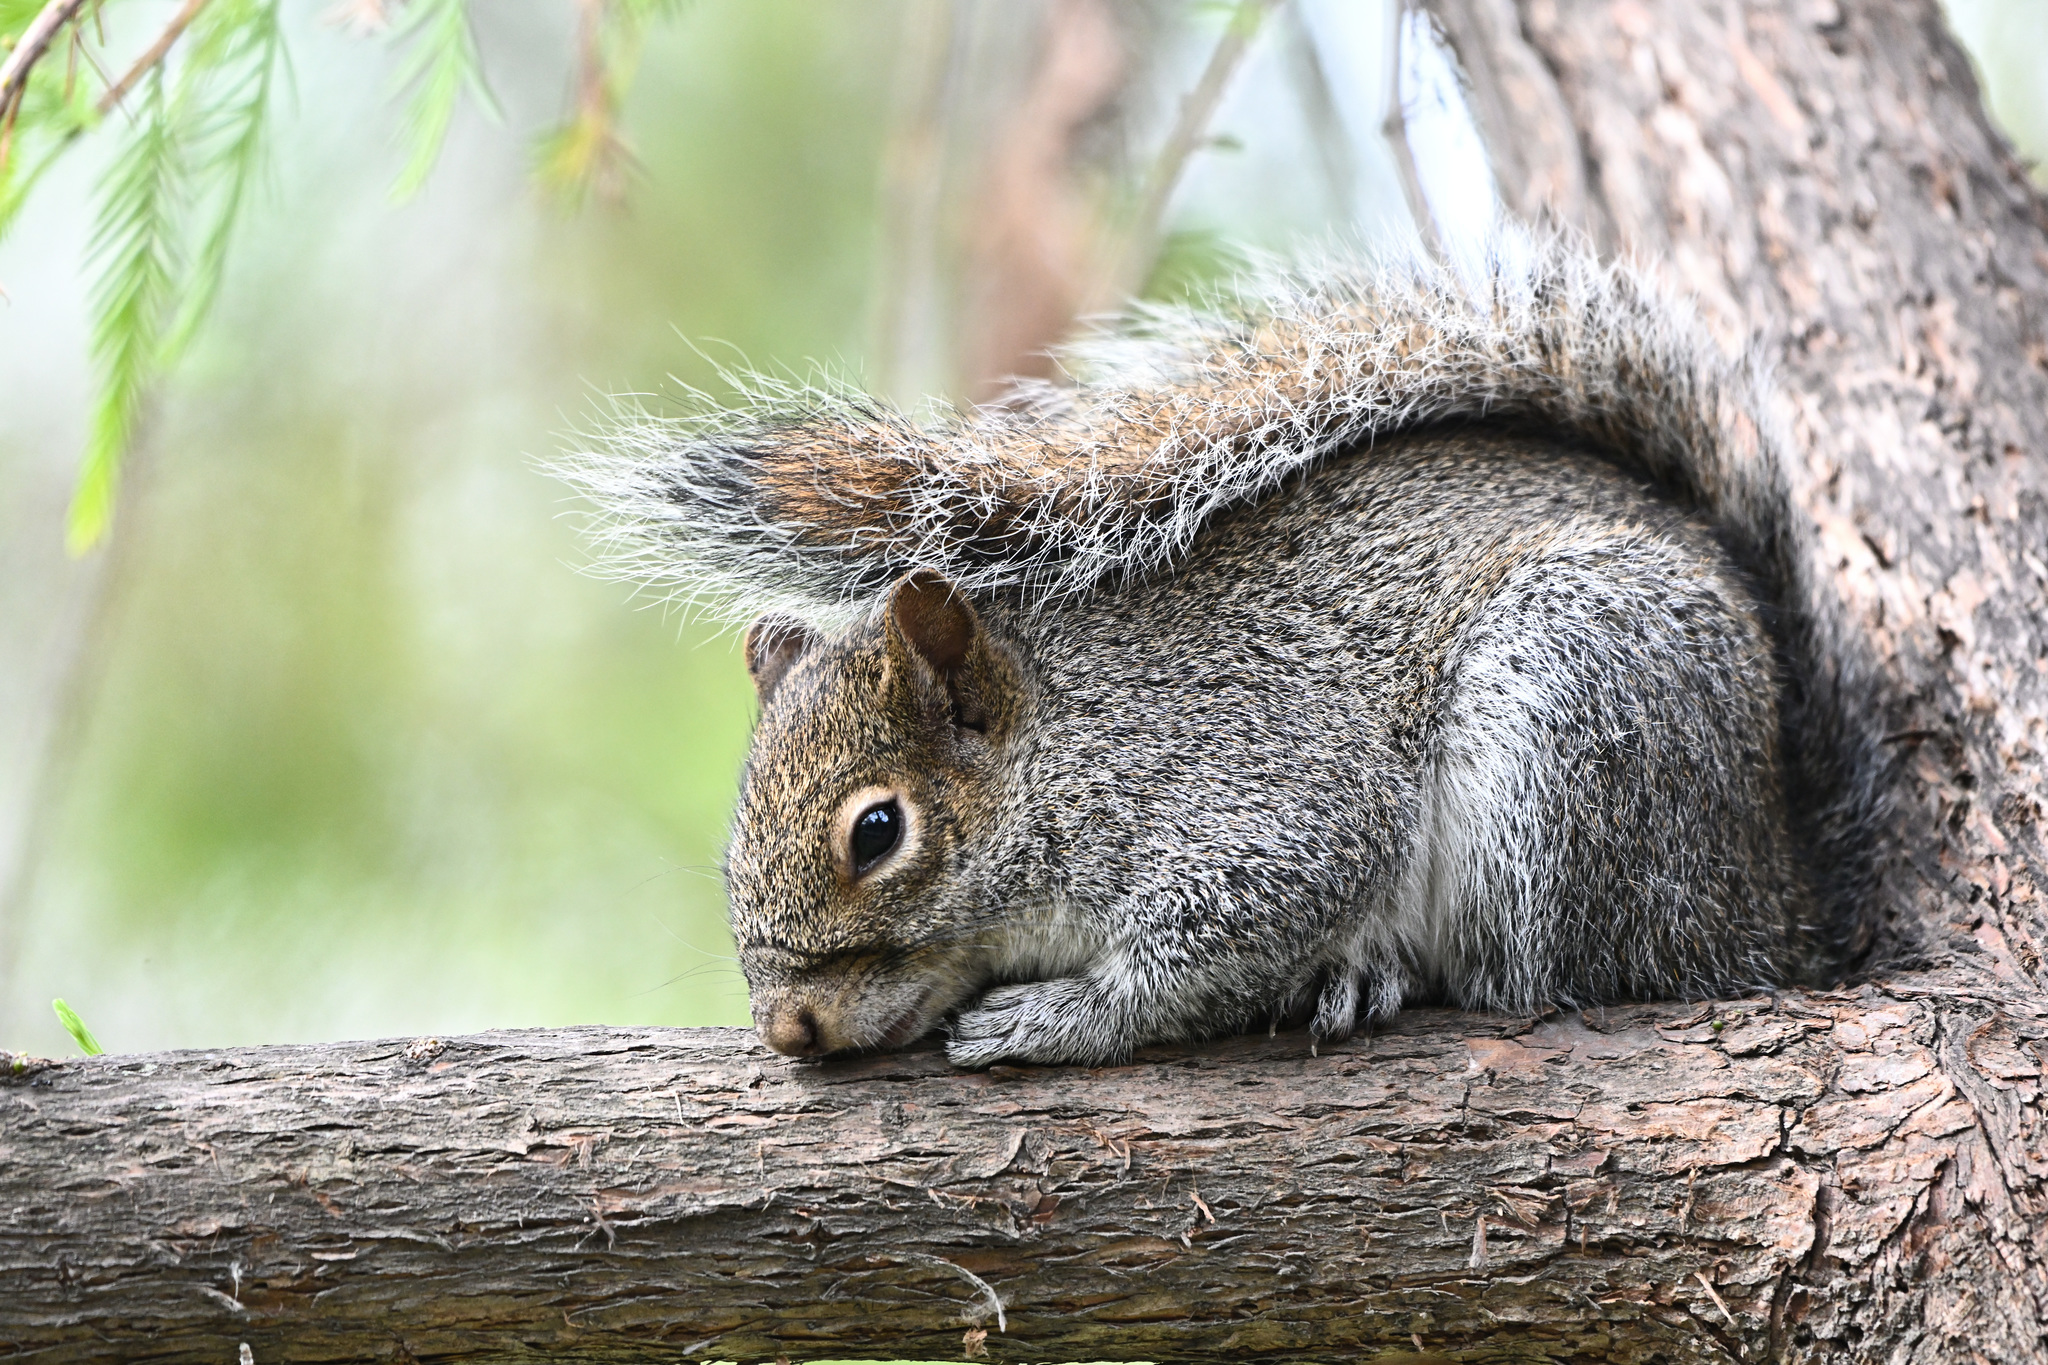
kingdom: Animalia
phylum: Chordata
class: Mammalia
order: Rodentia
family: Sciuridae
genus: Sciurus
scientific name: Sciurus alleni
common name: Allen's squirrel
